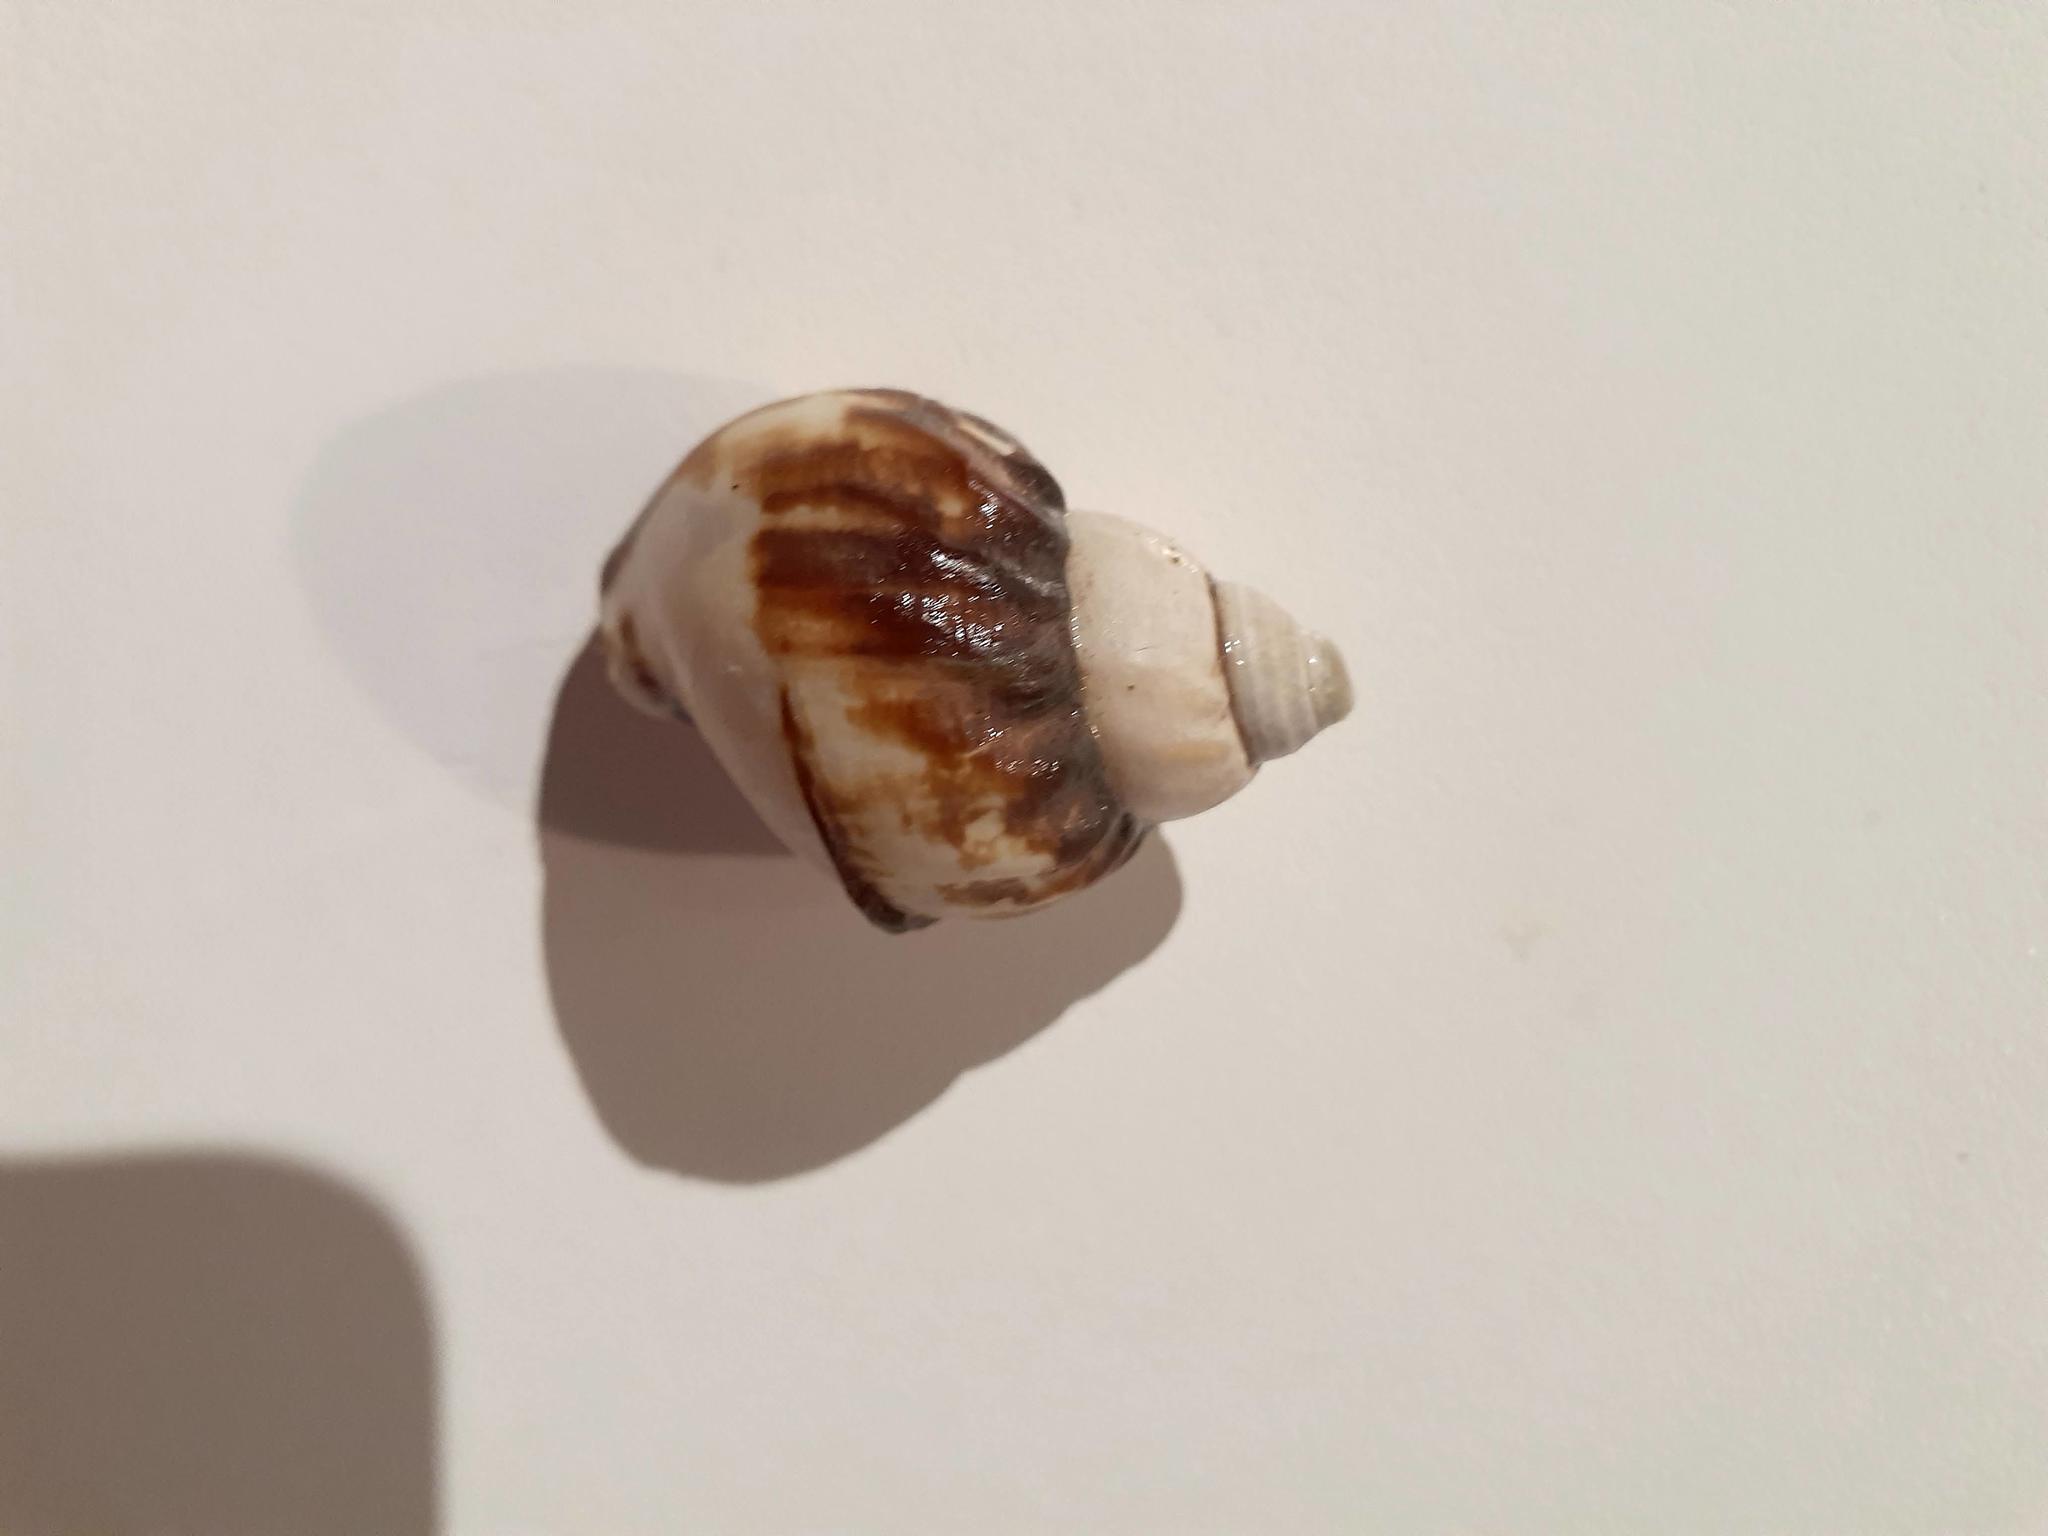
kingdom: Animalia
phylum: Mollusca
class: Gastropoda
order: Neogastropoda
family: Buccinidae
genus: Buccinum
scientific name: Buccinum undatum
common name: Common whelk
